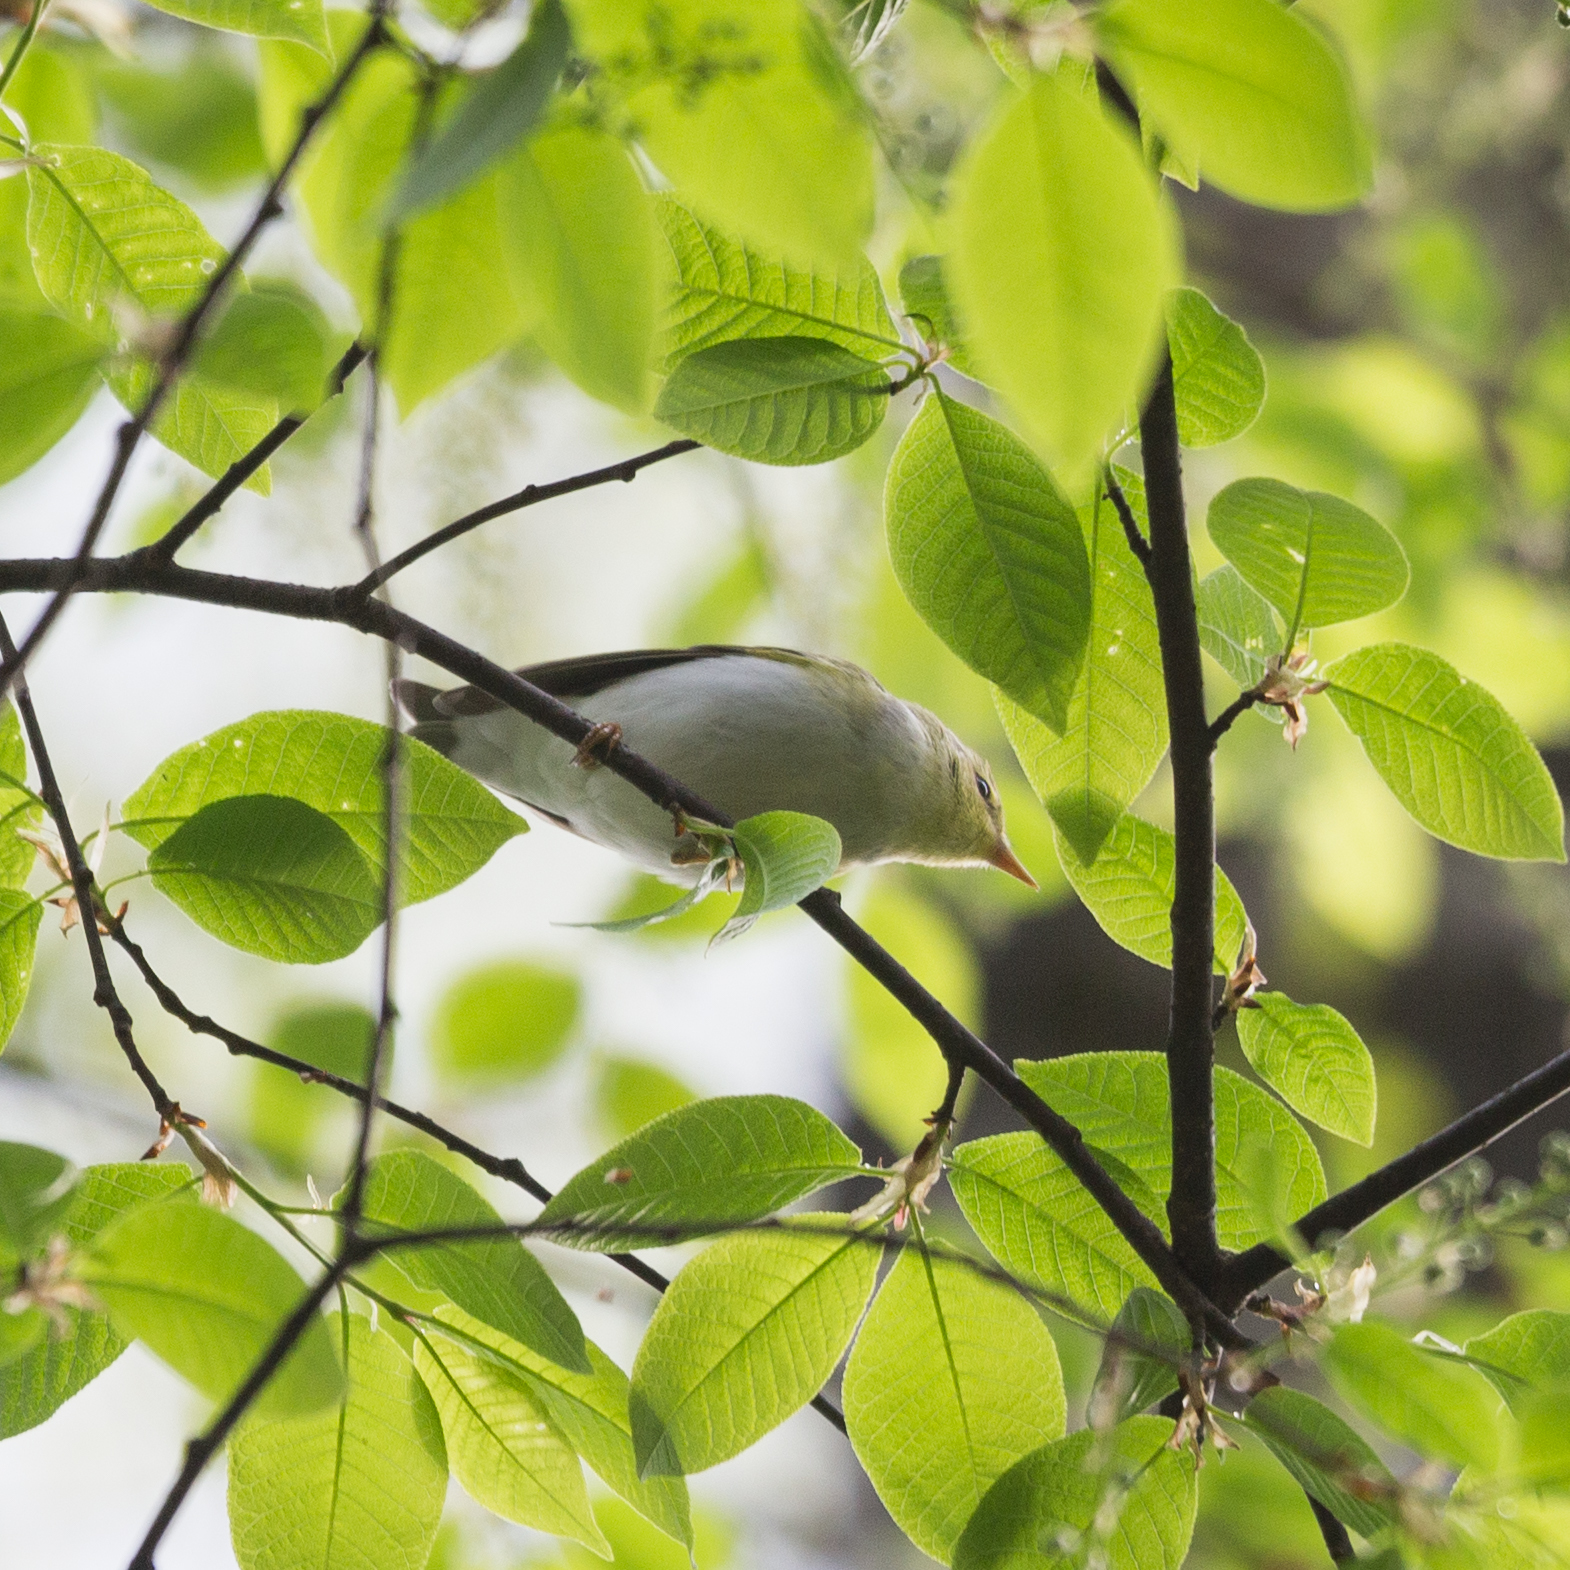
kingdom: Animalia
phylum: Chordata
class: Aves
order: Passeriformes
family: Phylloscopidae
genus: Phylloscopus
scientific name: Phylloscopus sibillatrix
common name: Wood warbler
